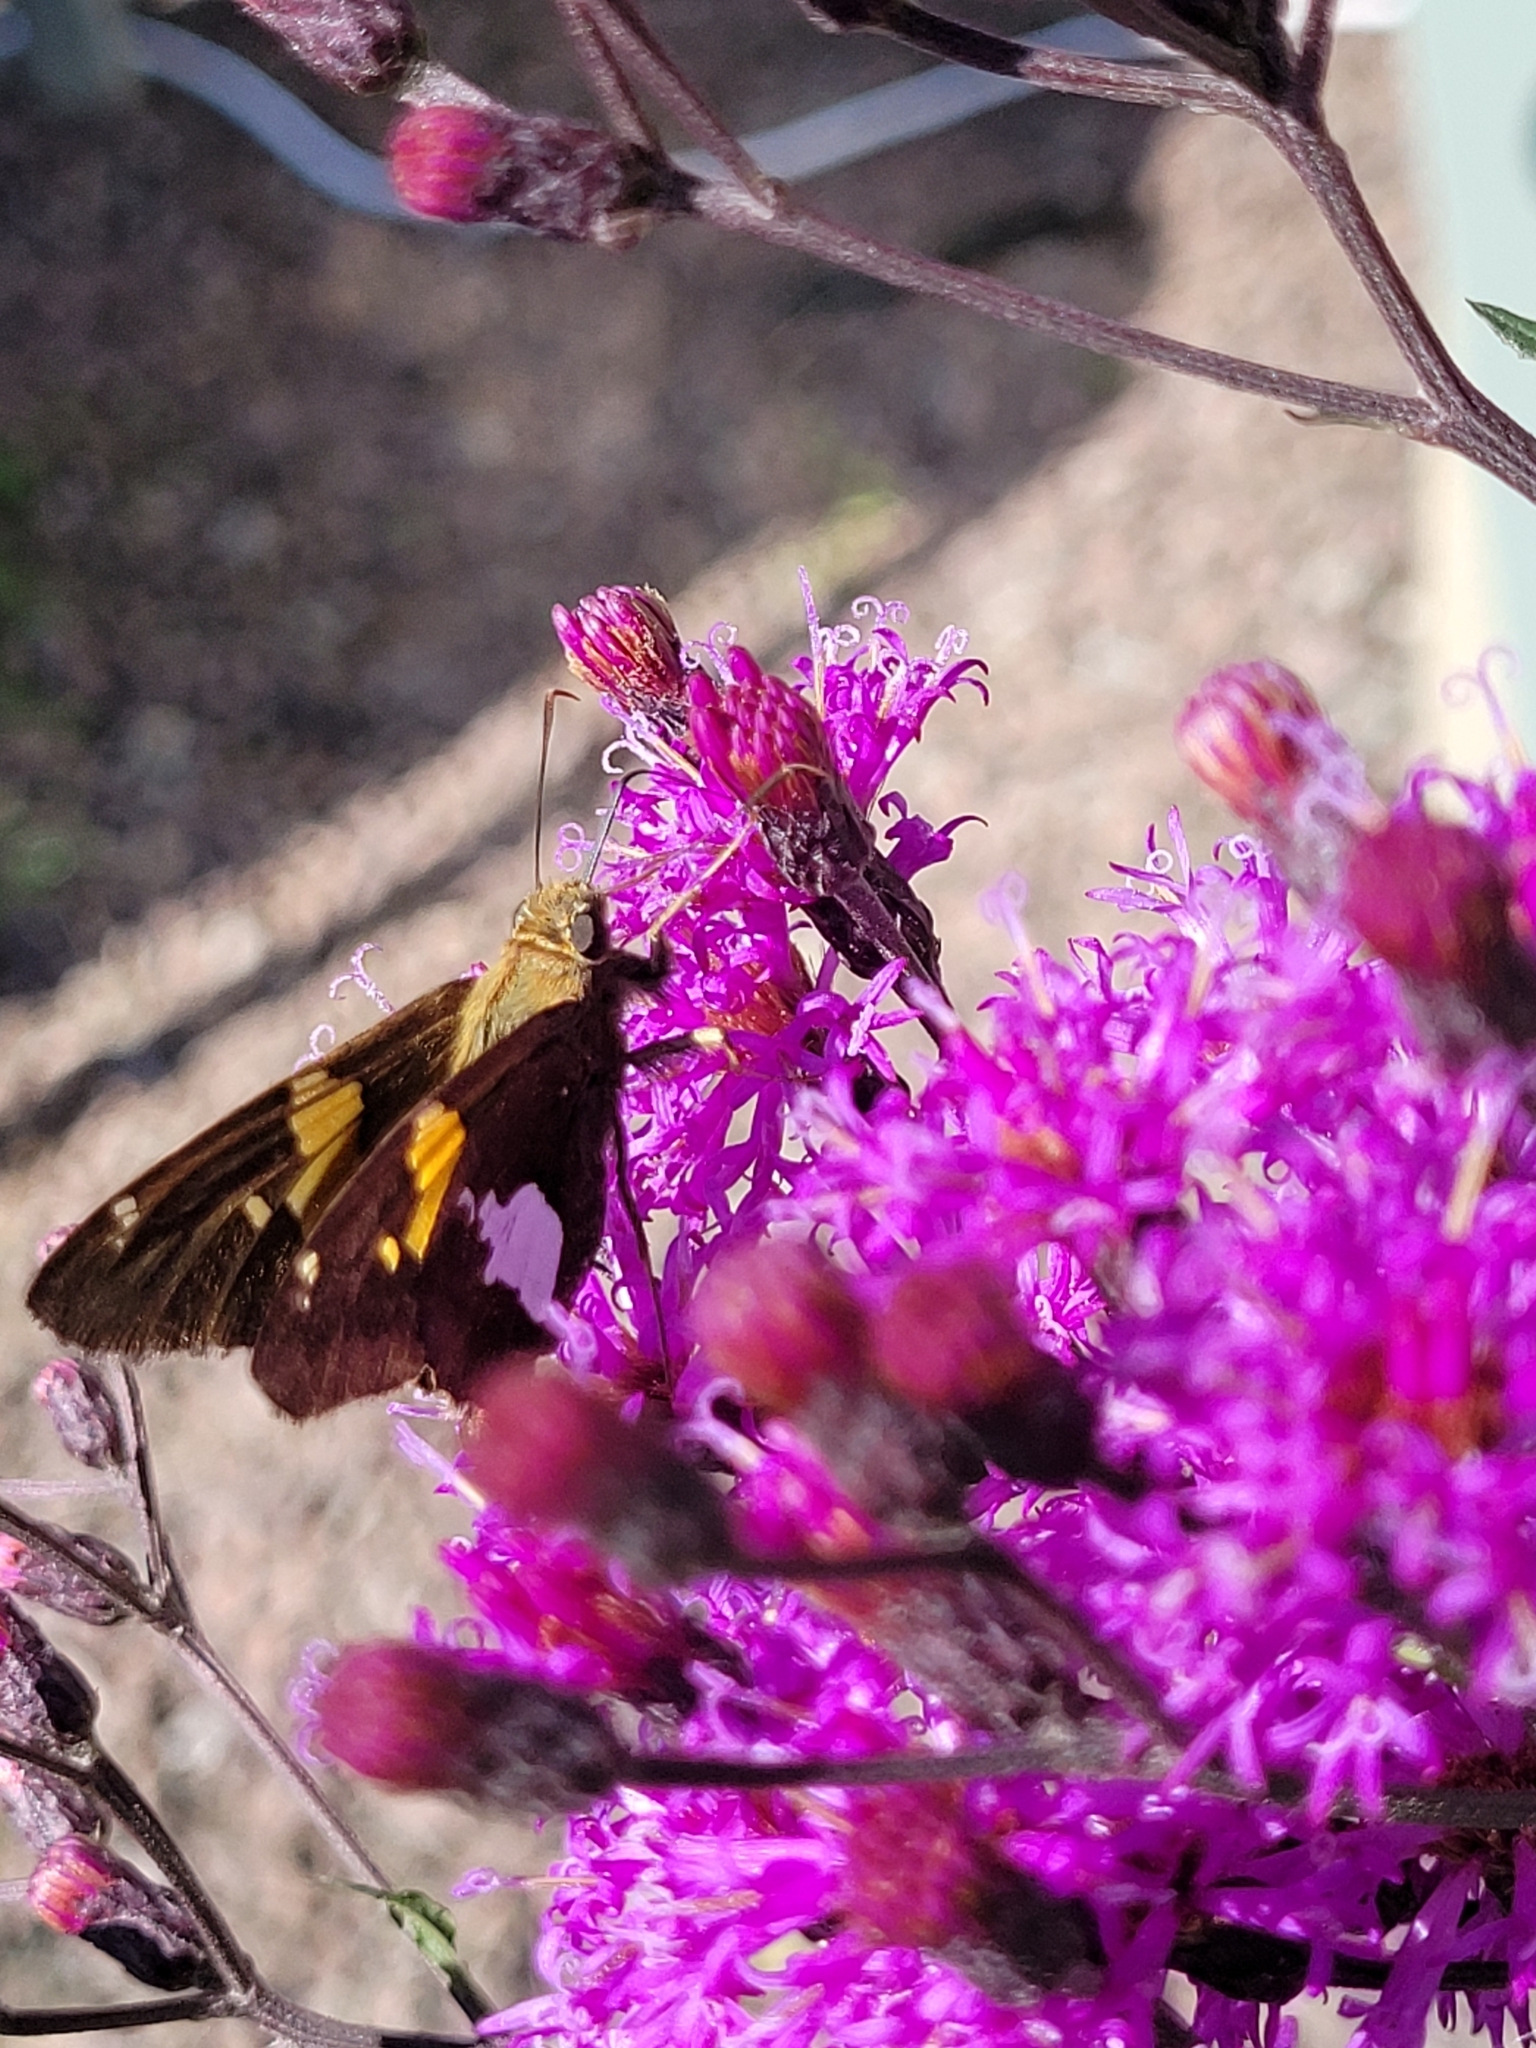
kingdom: Animalia
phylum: Arthropoda
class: Insecta
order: Lepidoptera
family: Hesperiidae
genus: Epargyreus
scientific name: Epargyreus clarus
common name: Silver-spotted skipper
